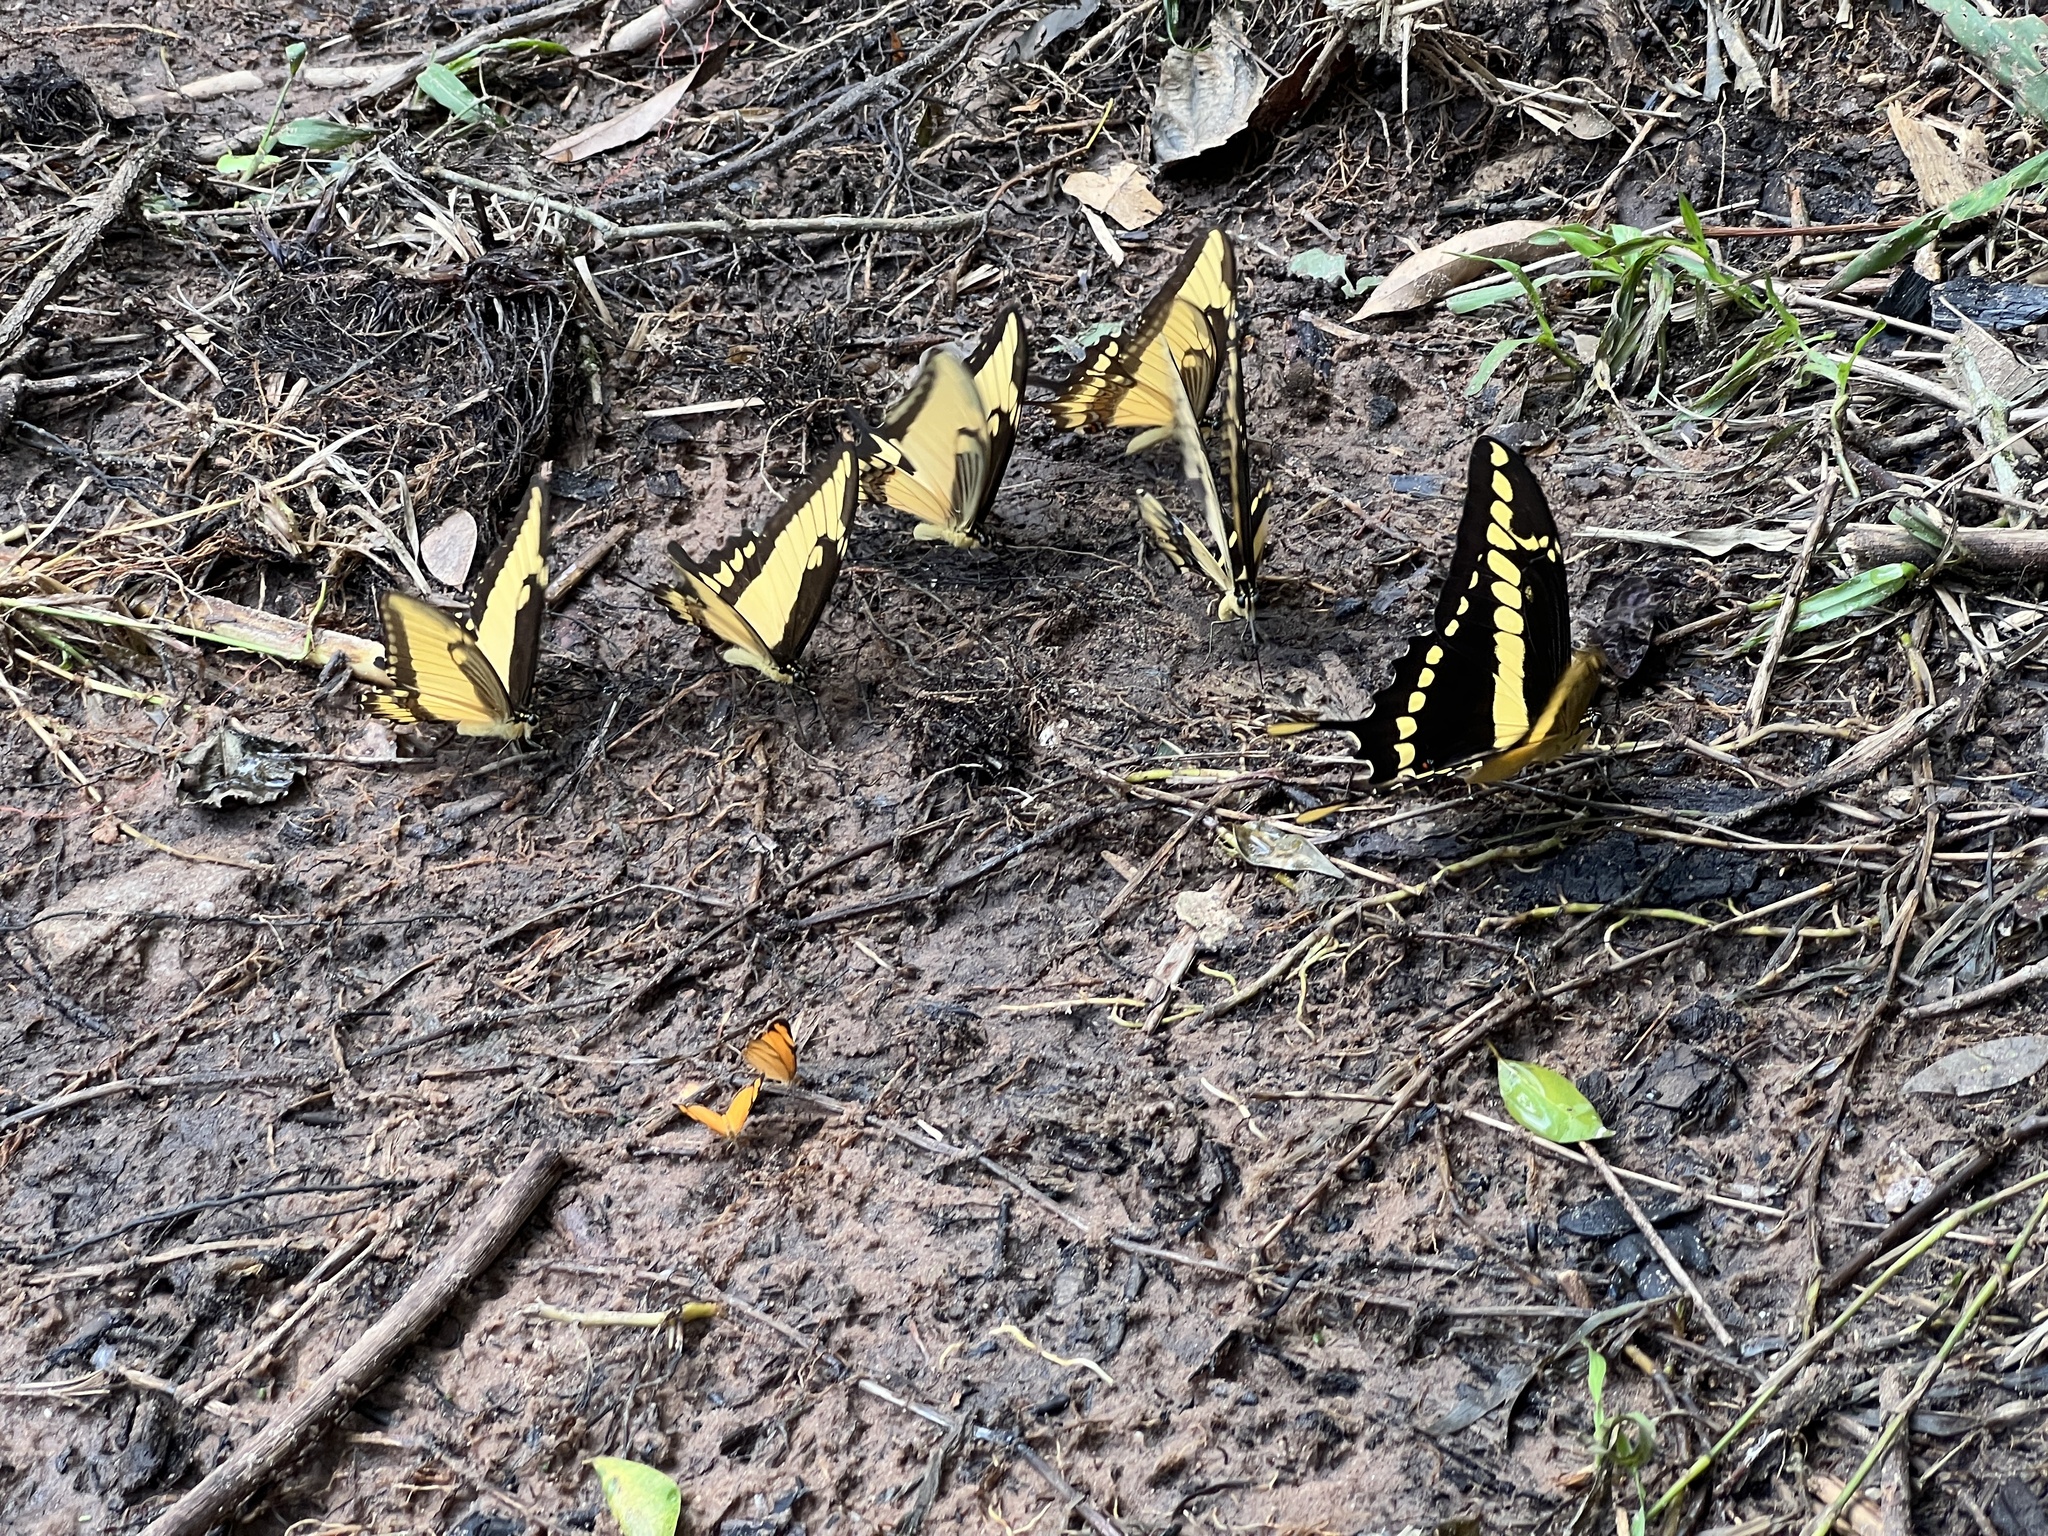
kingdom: Animalia
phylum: Arthropoda
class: Insecta
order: Lepidoptera
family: Papilionidae
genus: Papilio
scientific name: Papilio thoas
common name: King swallowtail
